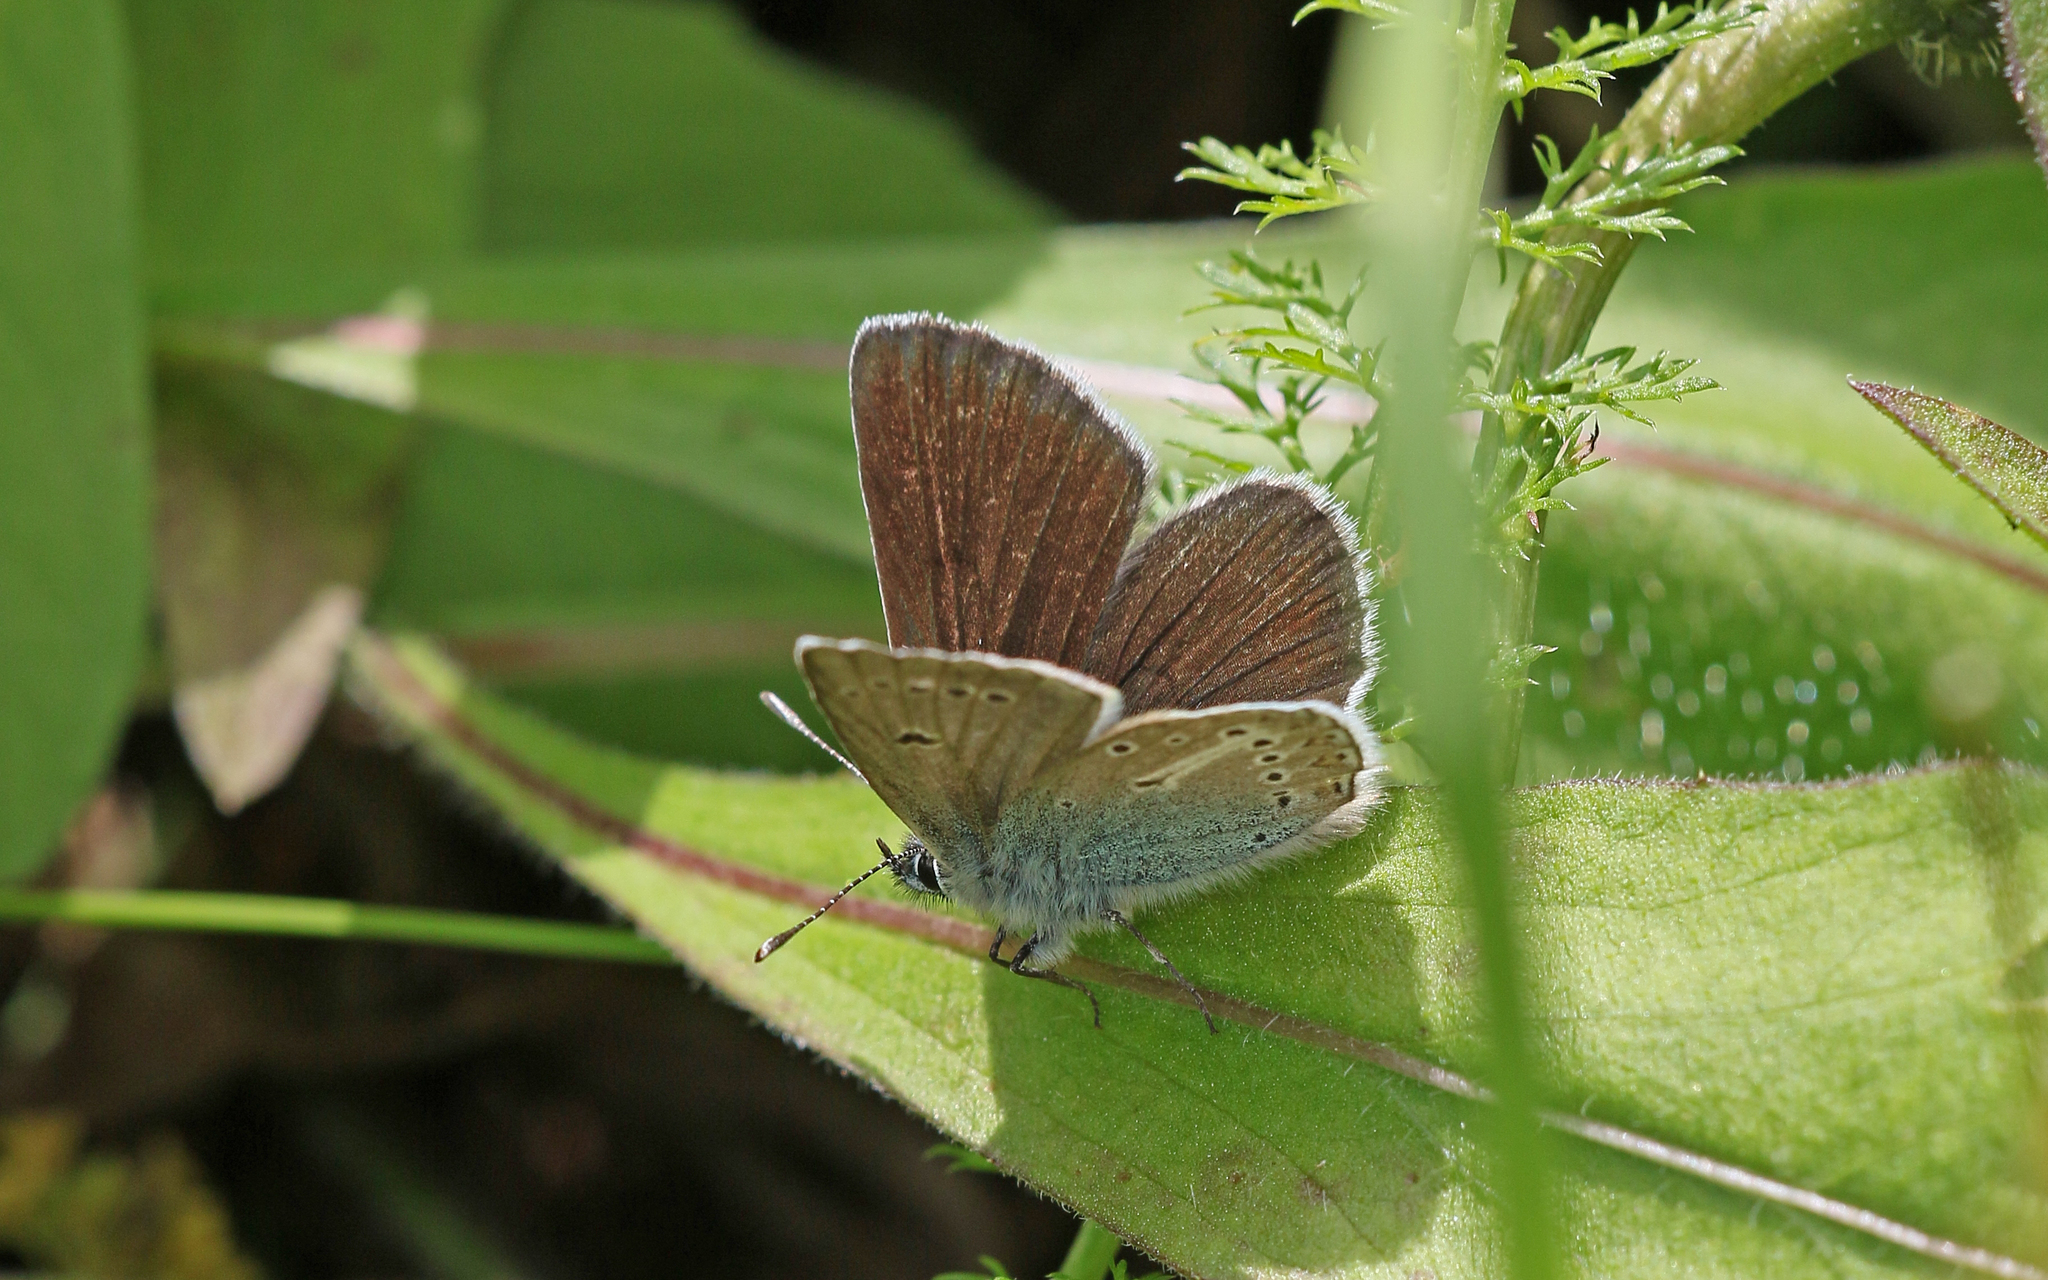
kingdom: Animalia
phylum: Arthropoda
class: Insecta
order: Lepidoptera
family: Lycaenidae
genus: Eumedonia
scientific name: Eumedonia eumedon
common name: Geranium argus
